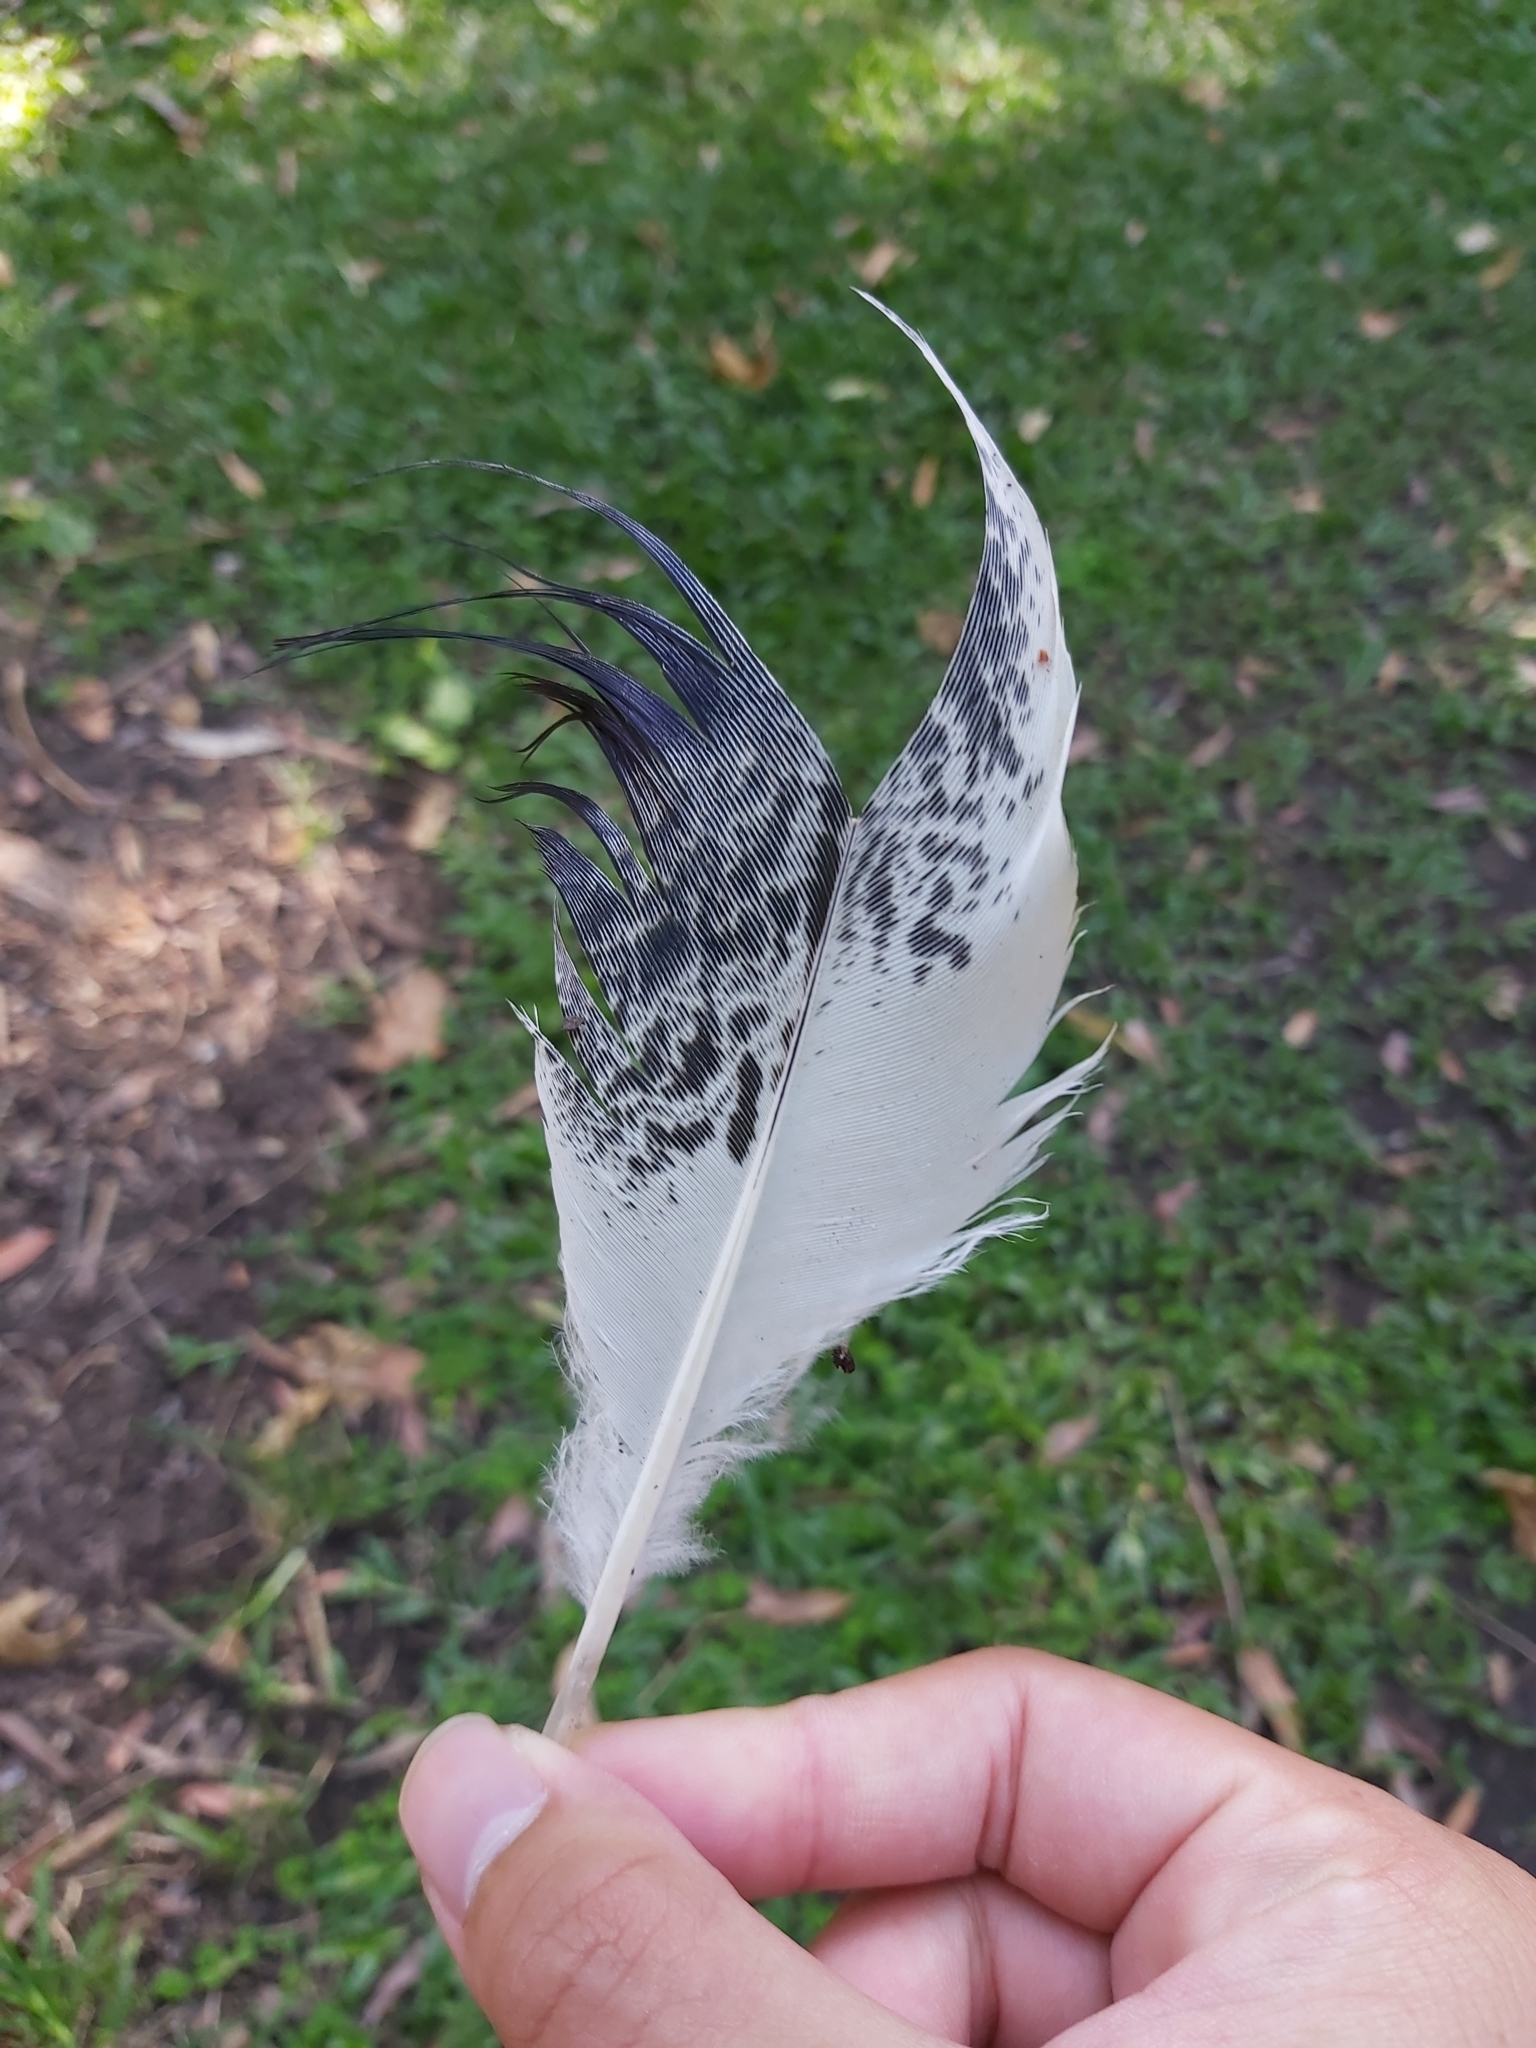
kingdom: Animalia
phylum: Chordata
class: Aves
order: Pelecaniformes
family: Threskiornithidae
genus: Threskiornis
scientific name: Threskiornis molucca
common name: Australian white ibis
